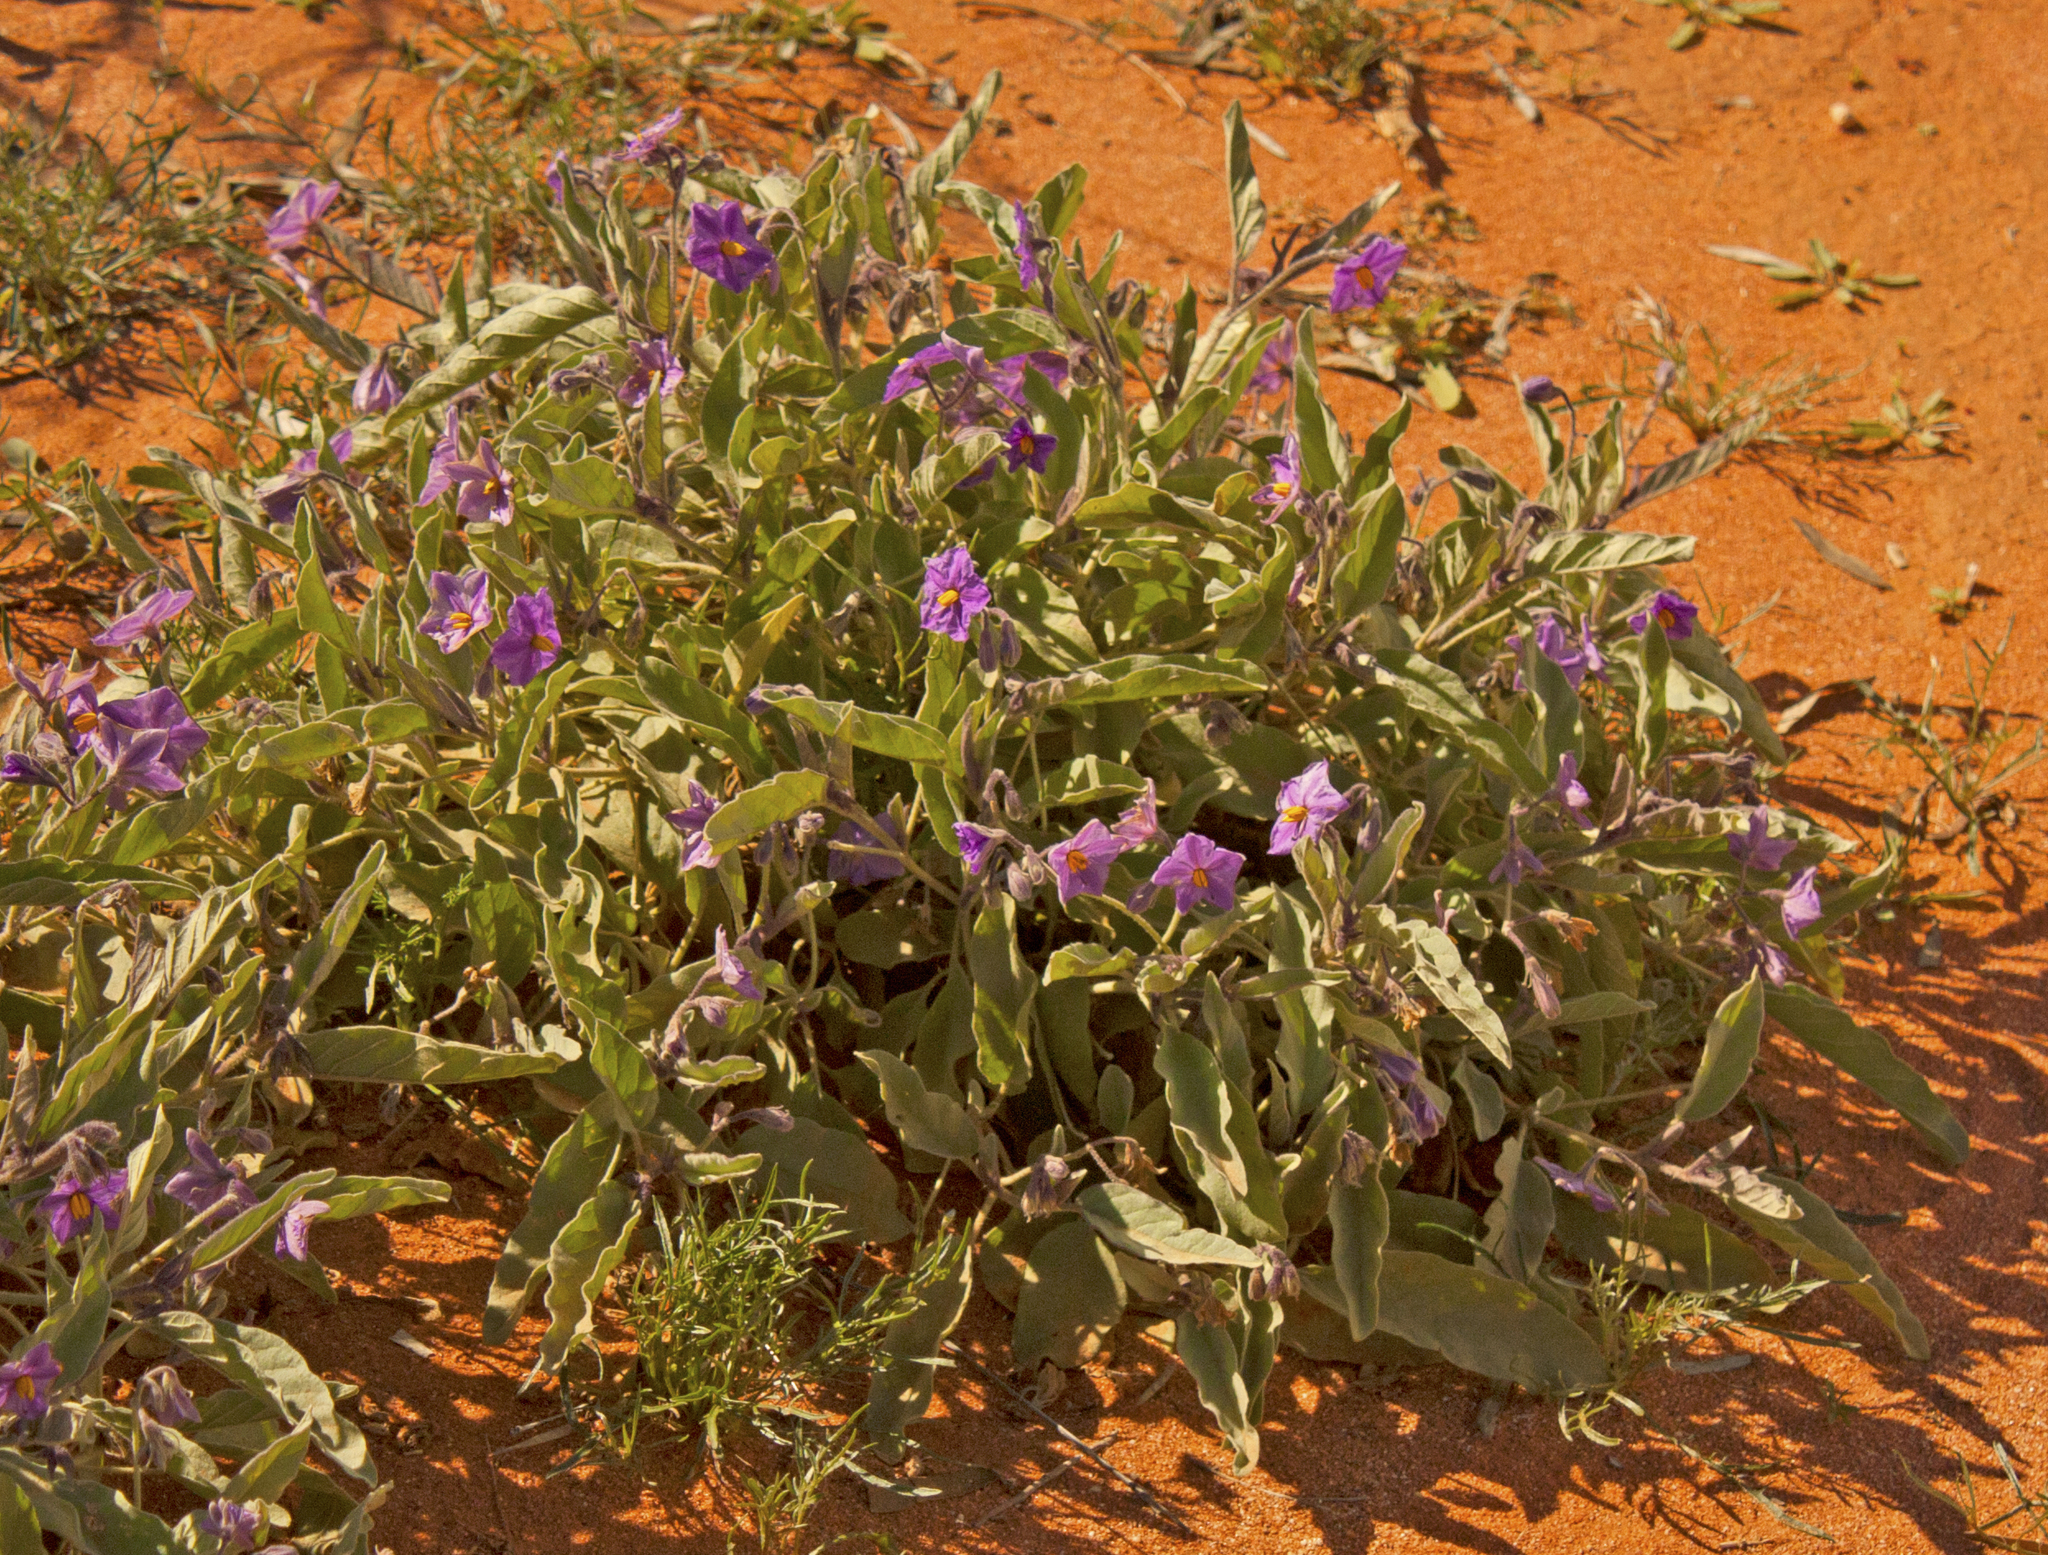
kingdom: Plantae
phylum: Tracheophyta
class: Magnoliopsida
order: Solanales
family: Solanaceae
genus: Solanum
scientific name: Solanum emmottii
